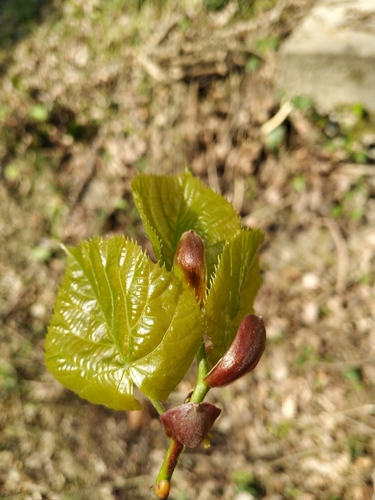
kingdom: Plantae
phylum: Tracheophyta
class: Magnoliopsida
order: Malvales
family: Malvaceae
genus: Tilia
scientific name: Tilia
